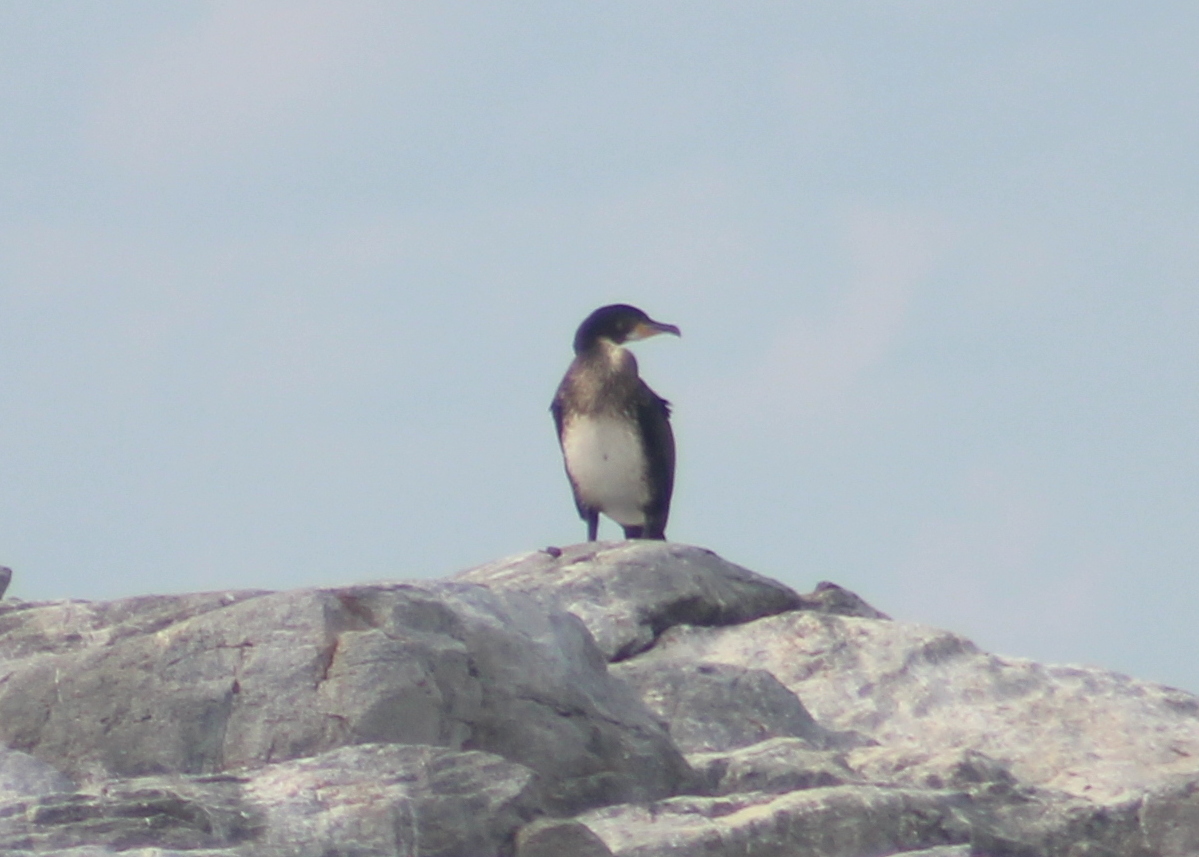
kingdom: Animalia
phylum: Chordata
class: Aves
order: Suliformes
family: Phalacrocoracidae
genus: Phalacrocorax
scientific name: Phalacrocorax carbo
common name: Great cormorant
